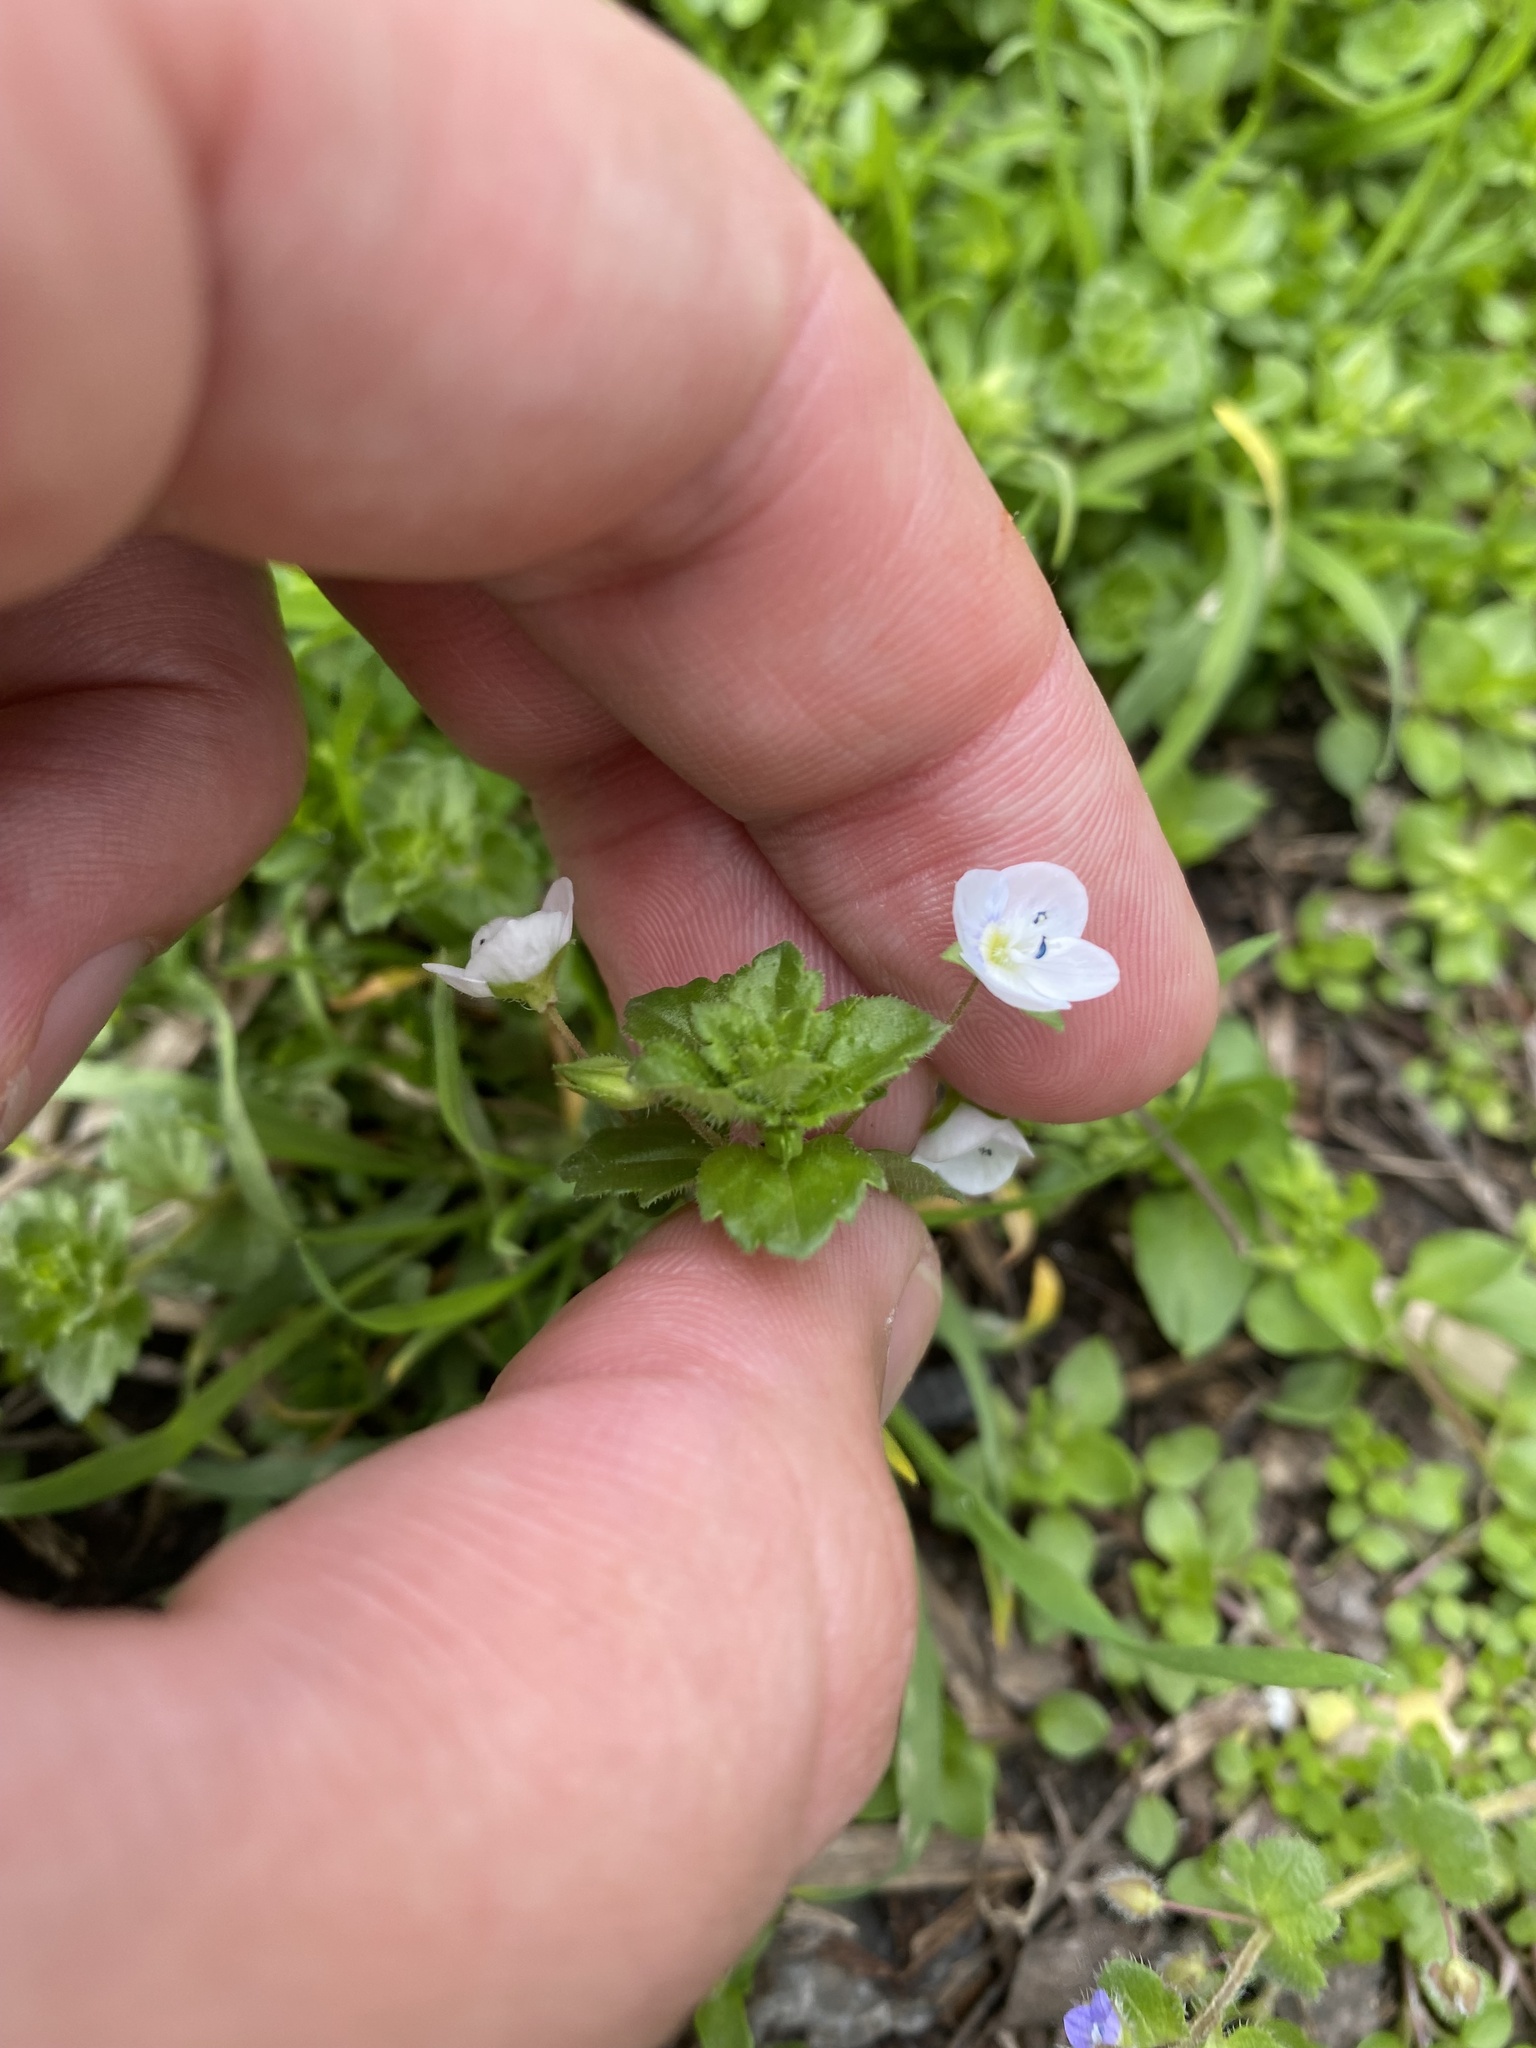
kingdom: Plantae
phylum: Tracheophyta
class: Magnoliopsida
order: Lamiales
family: Plantaginaceae
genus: Veronica
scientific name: Veronica persica
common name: Common field-speedwell
